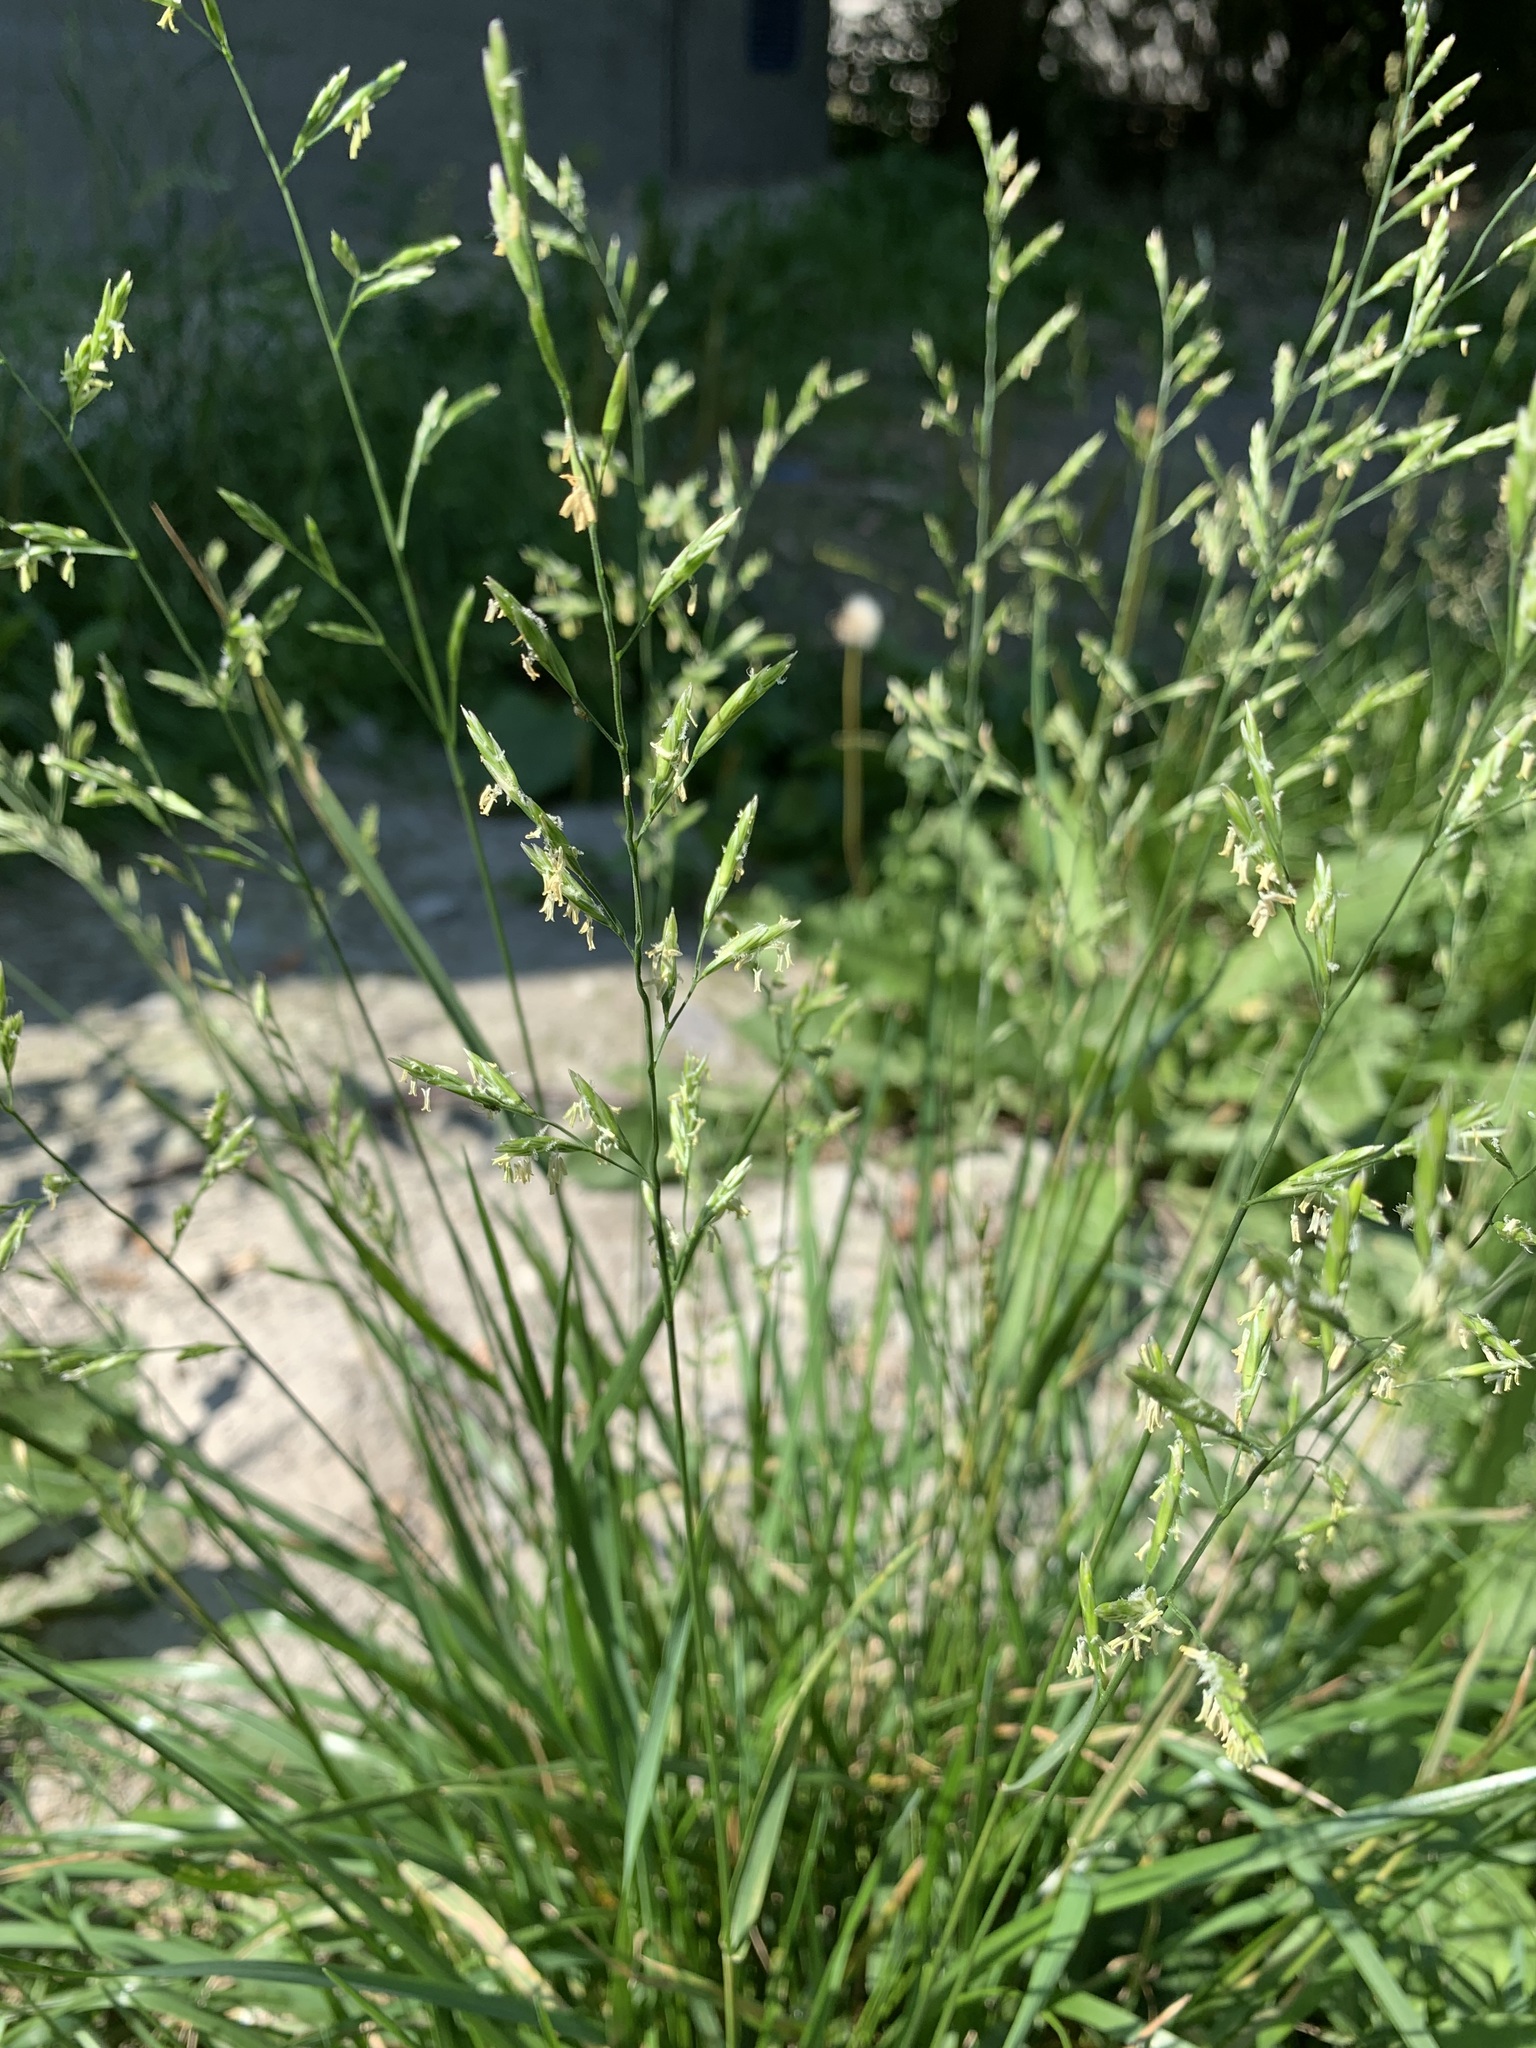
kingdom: Plantae
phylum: Tracheophyta
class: Liliopsida
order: Poales
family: Poaceae
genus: Lolium
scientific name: Lolium pratense
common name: Dover grass
